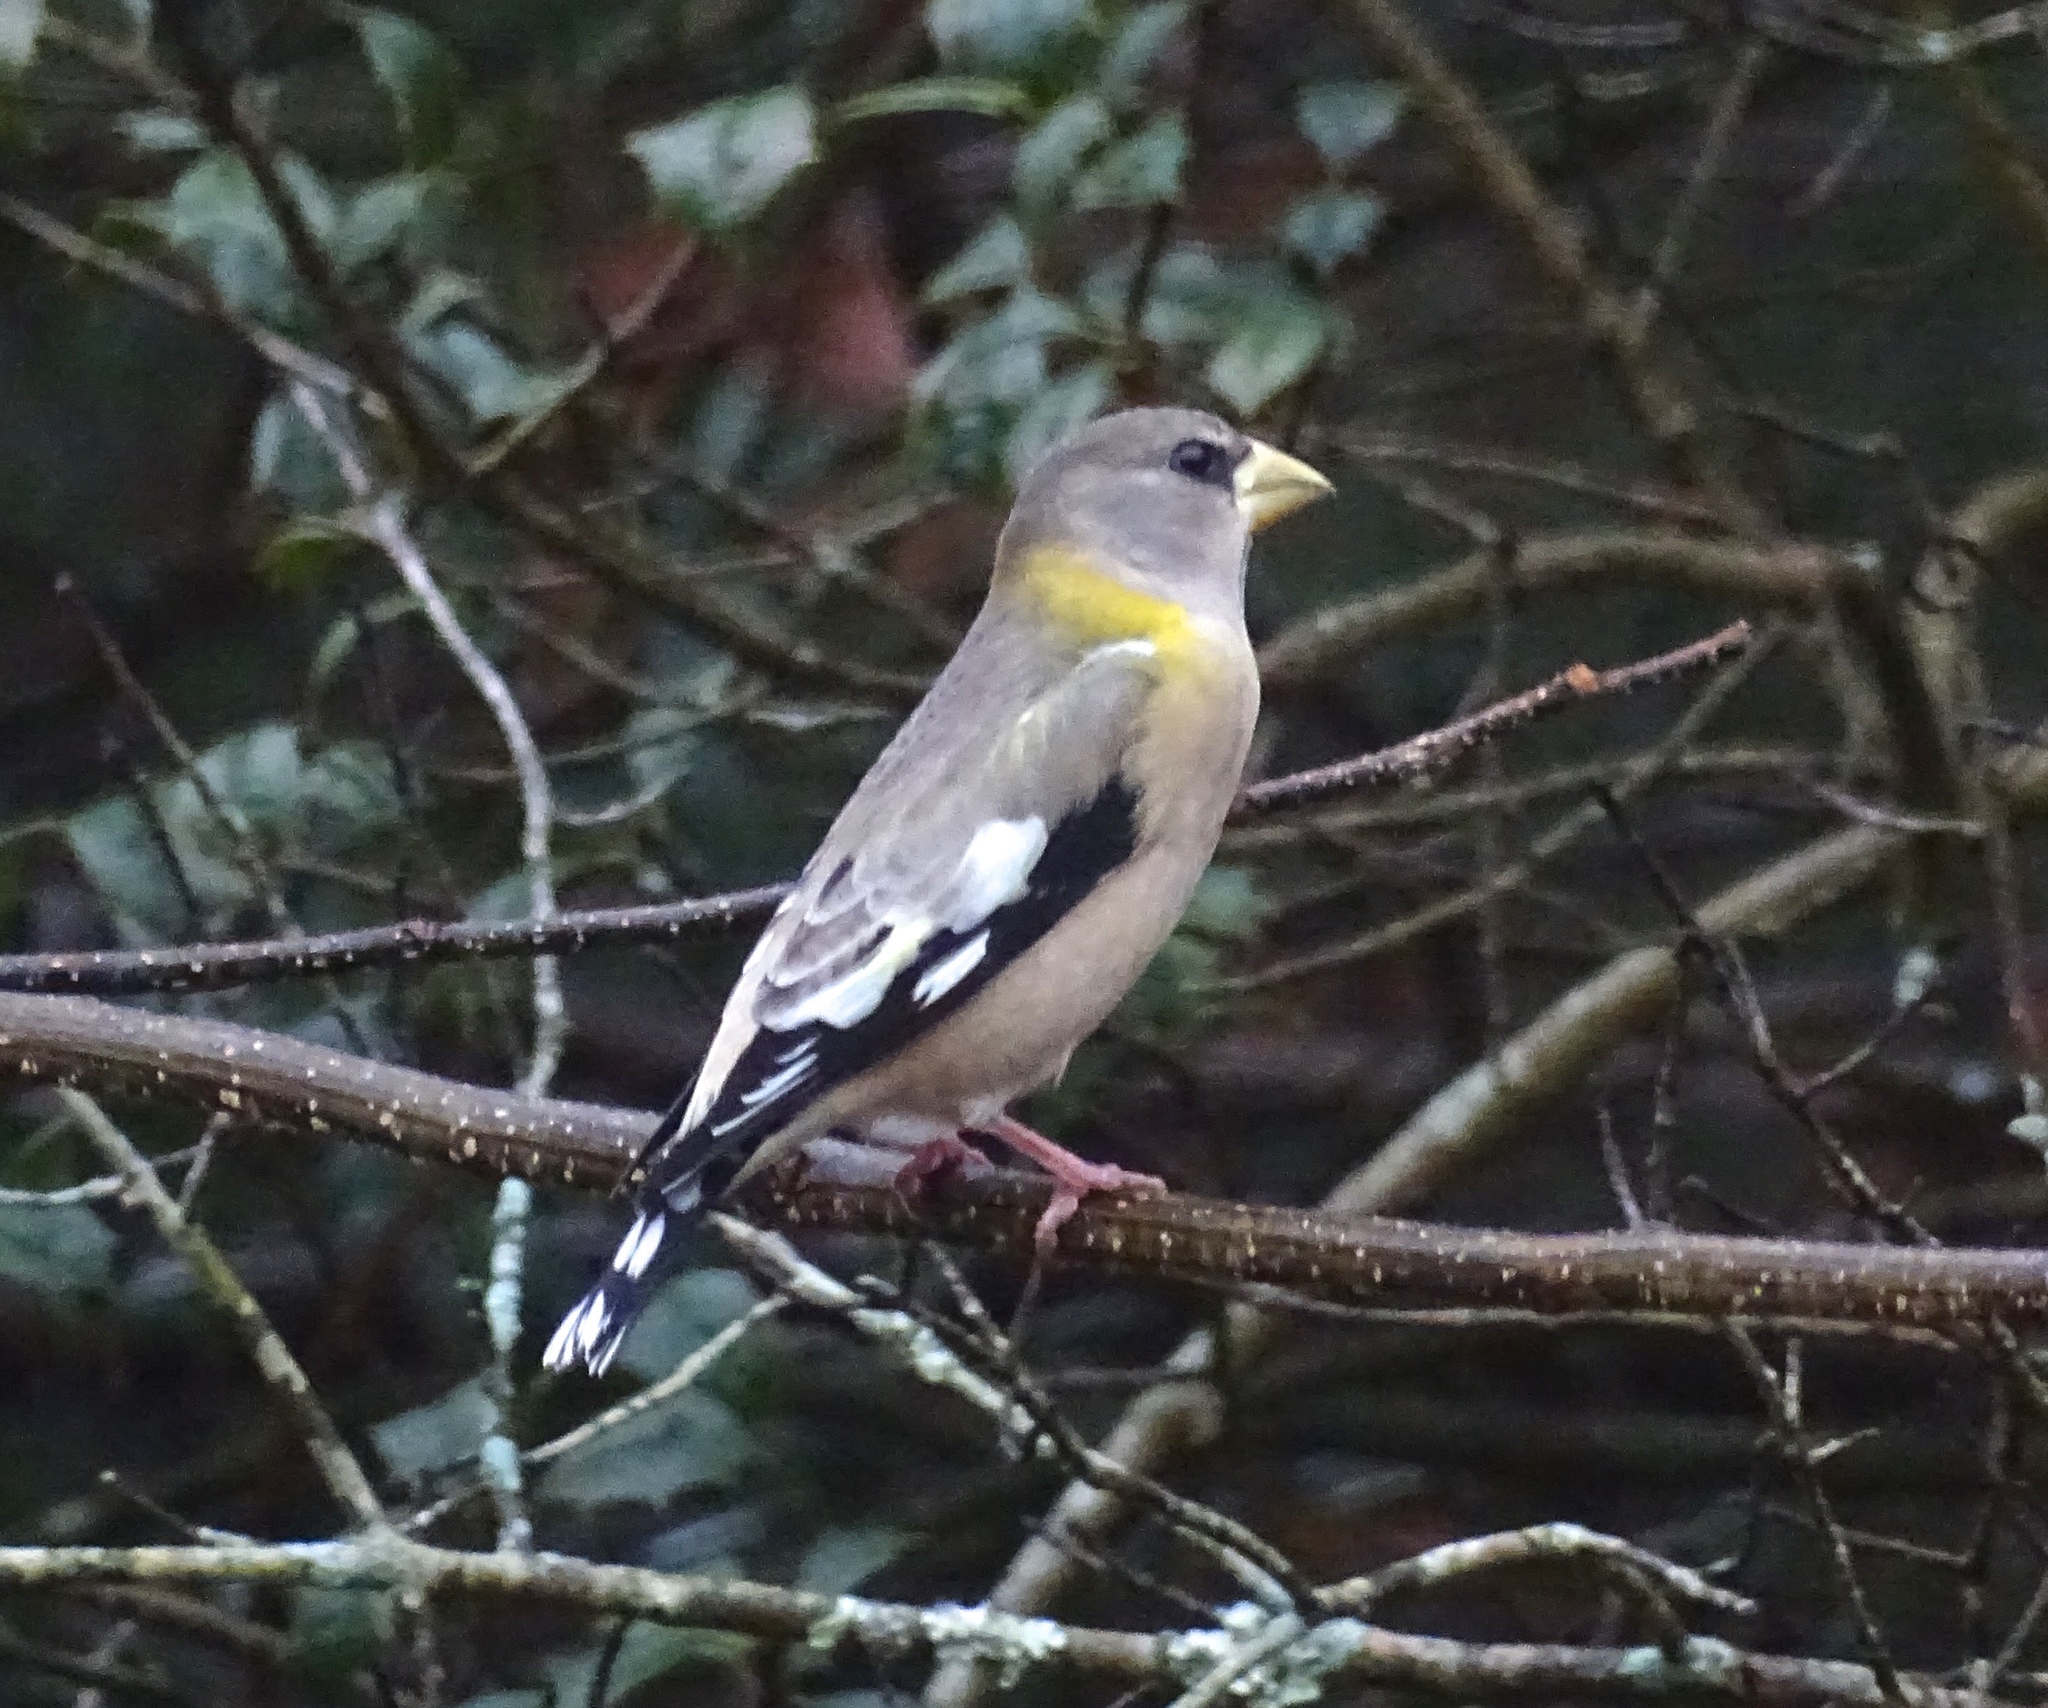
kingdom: Animalia
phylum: Chordata
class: Aves
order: Passeriformes
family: Fringillidae
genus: Hesperiphona
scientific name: Hesperiphona vespertina
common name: Evening grosbeak
